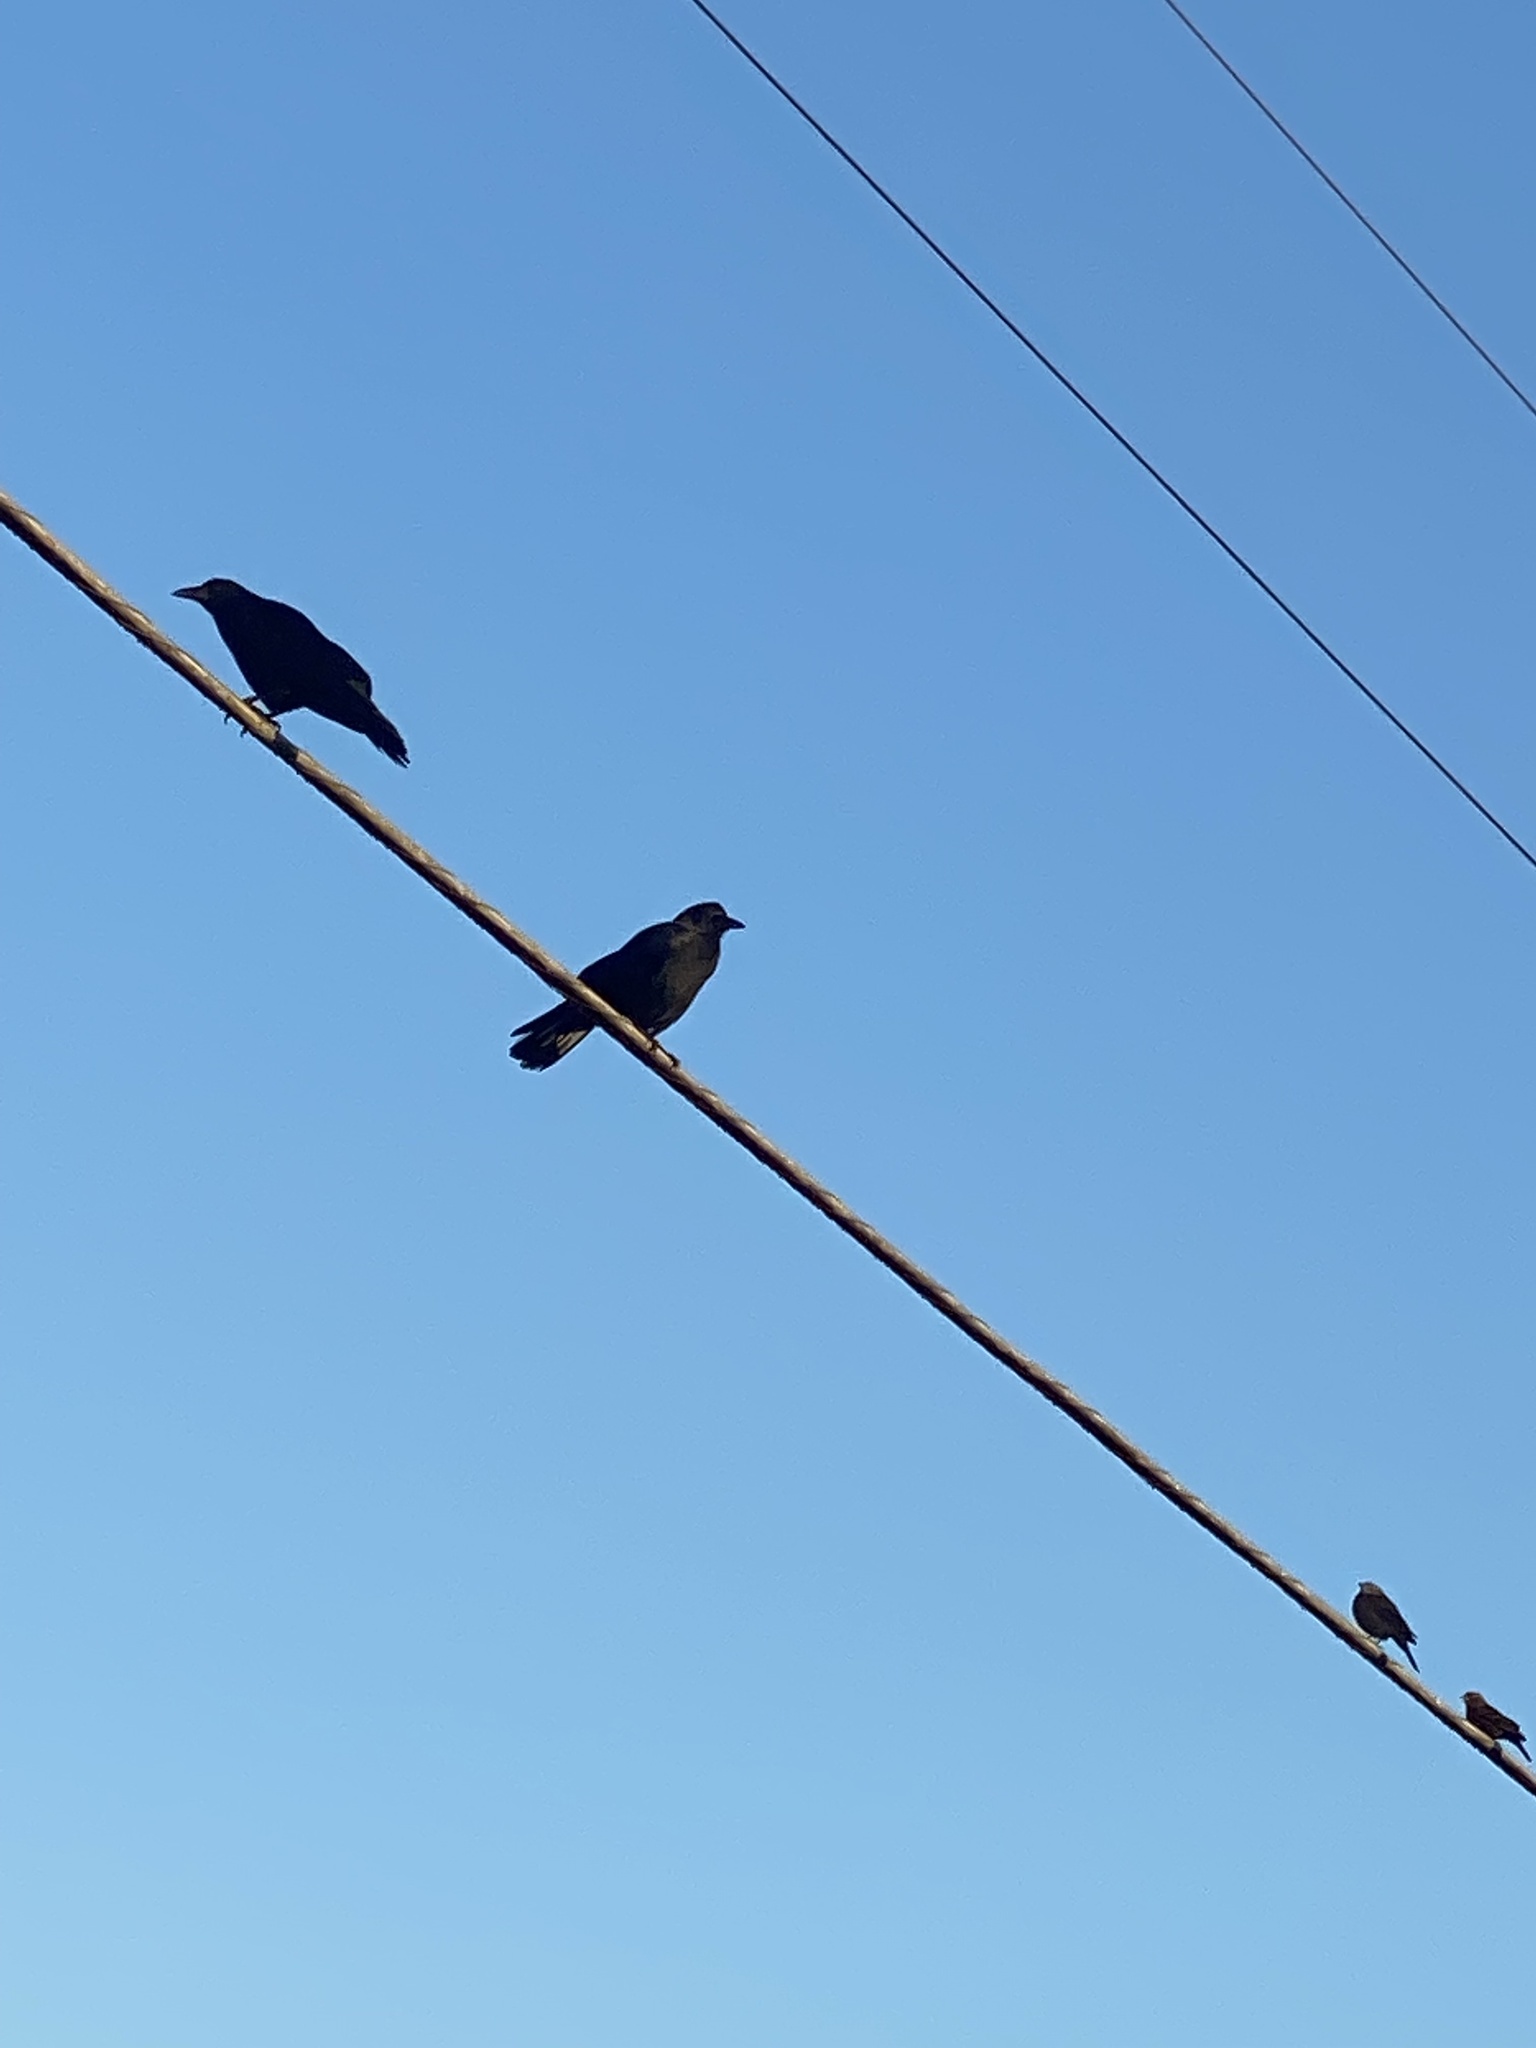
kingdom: Animalia
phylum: Chordata
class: Aves
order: Passeriformes
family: Corvidae
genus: Corvus
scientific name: Corvus brachyrhynchos
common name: American crow
